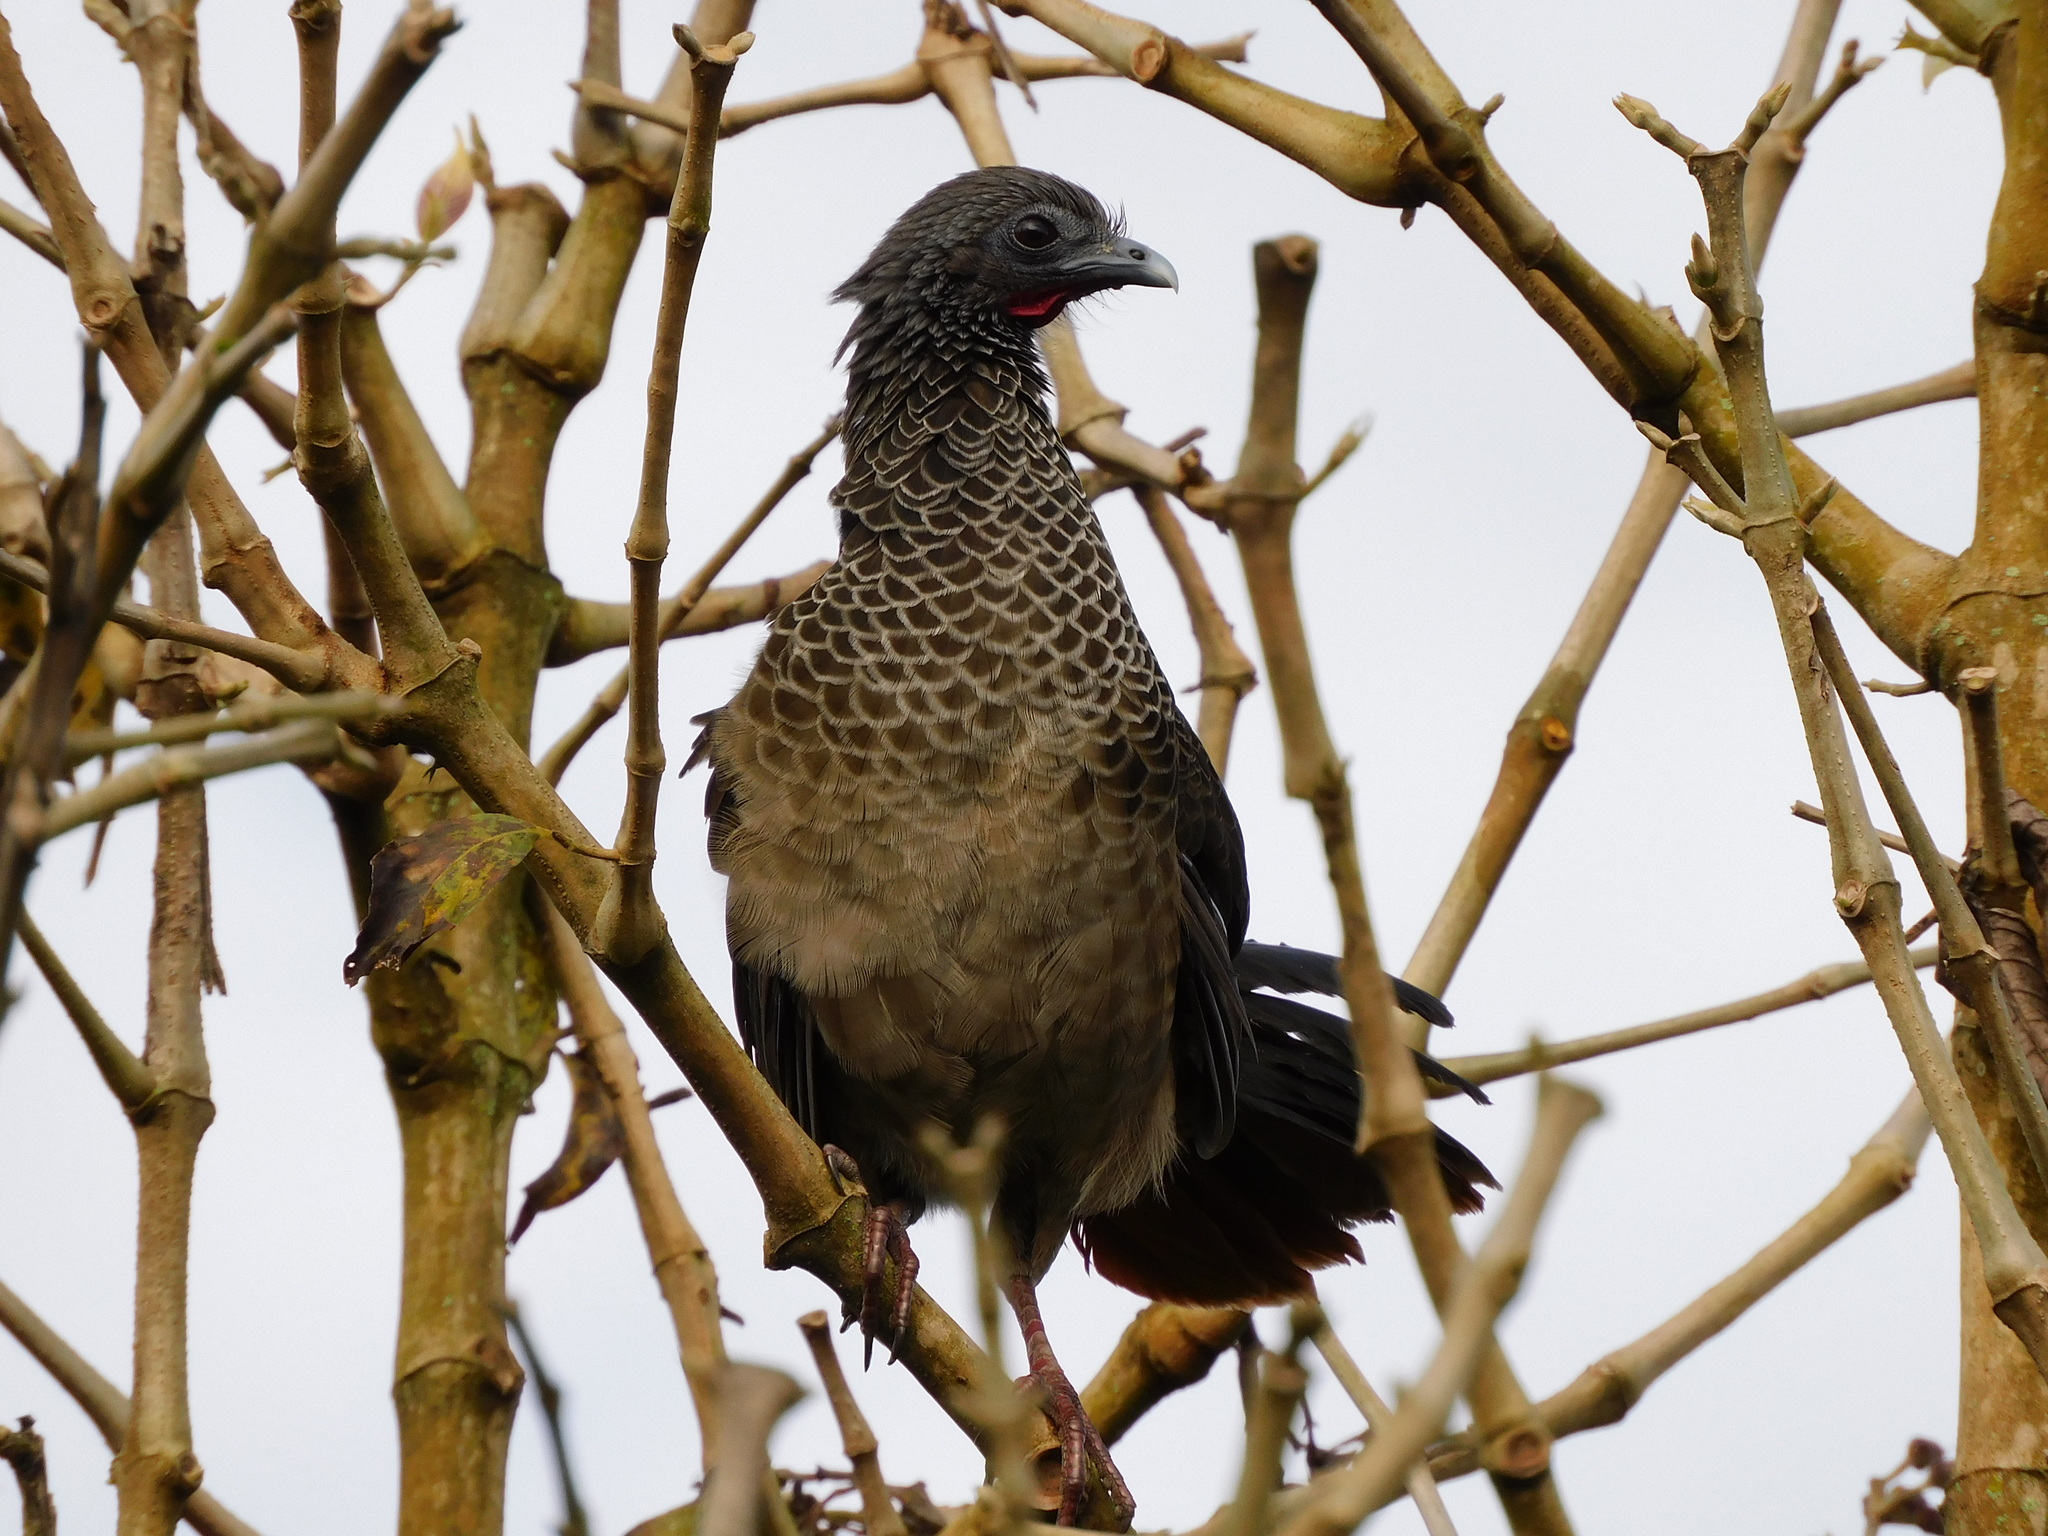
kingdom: Animalia
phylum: Chordata
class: Aves
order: Galliformes
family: Cracidae
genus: Ortalis
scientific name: Ortalis columbiana
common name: Colombian chachalaca
